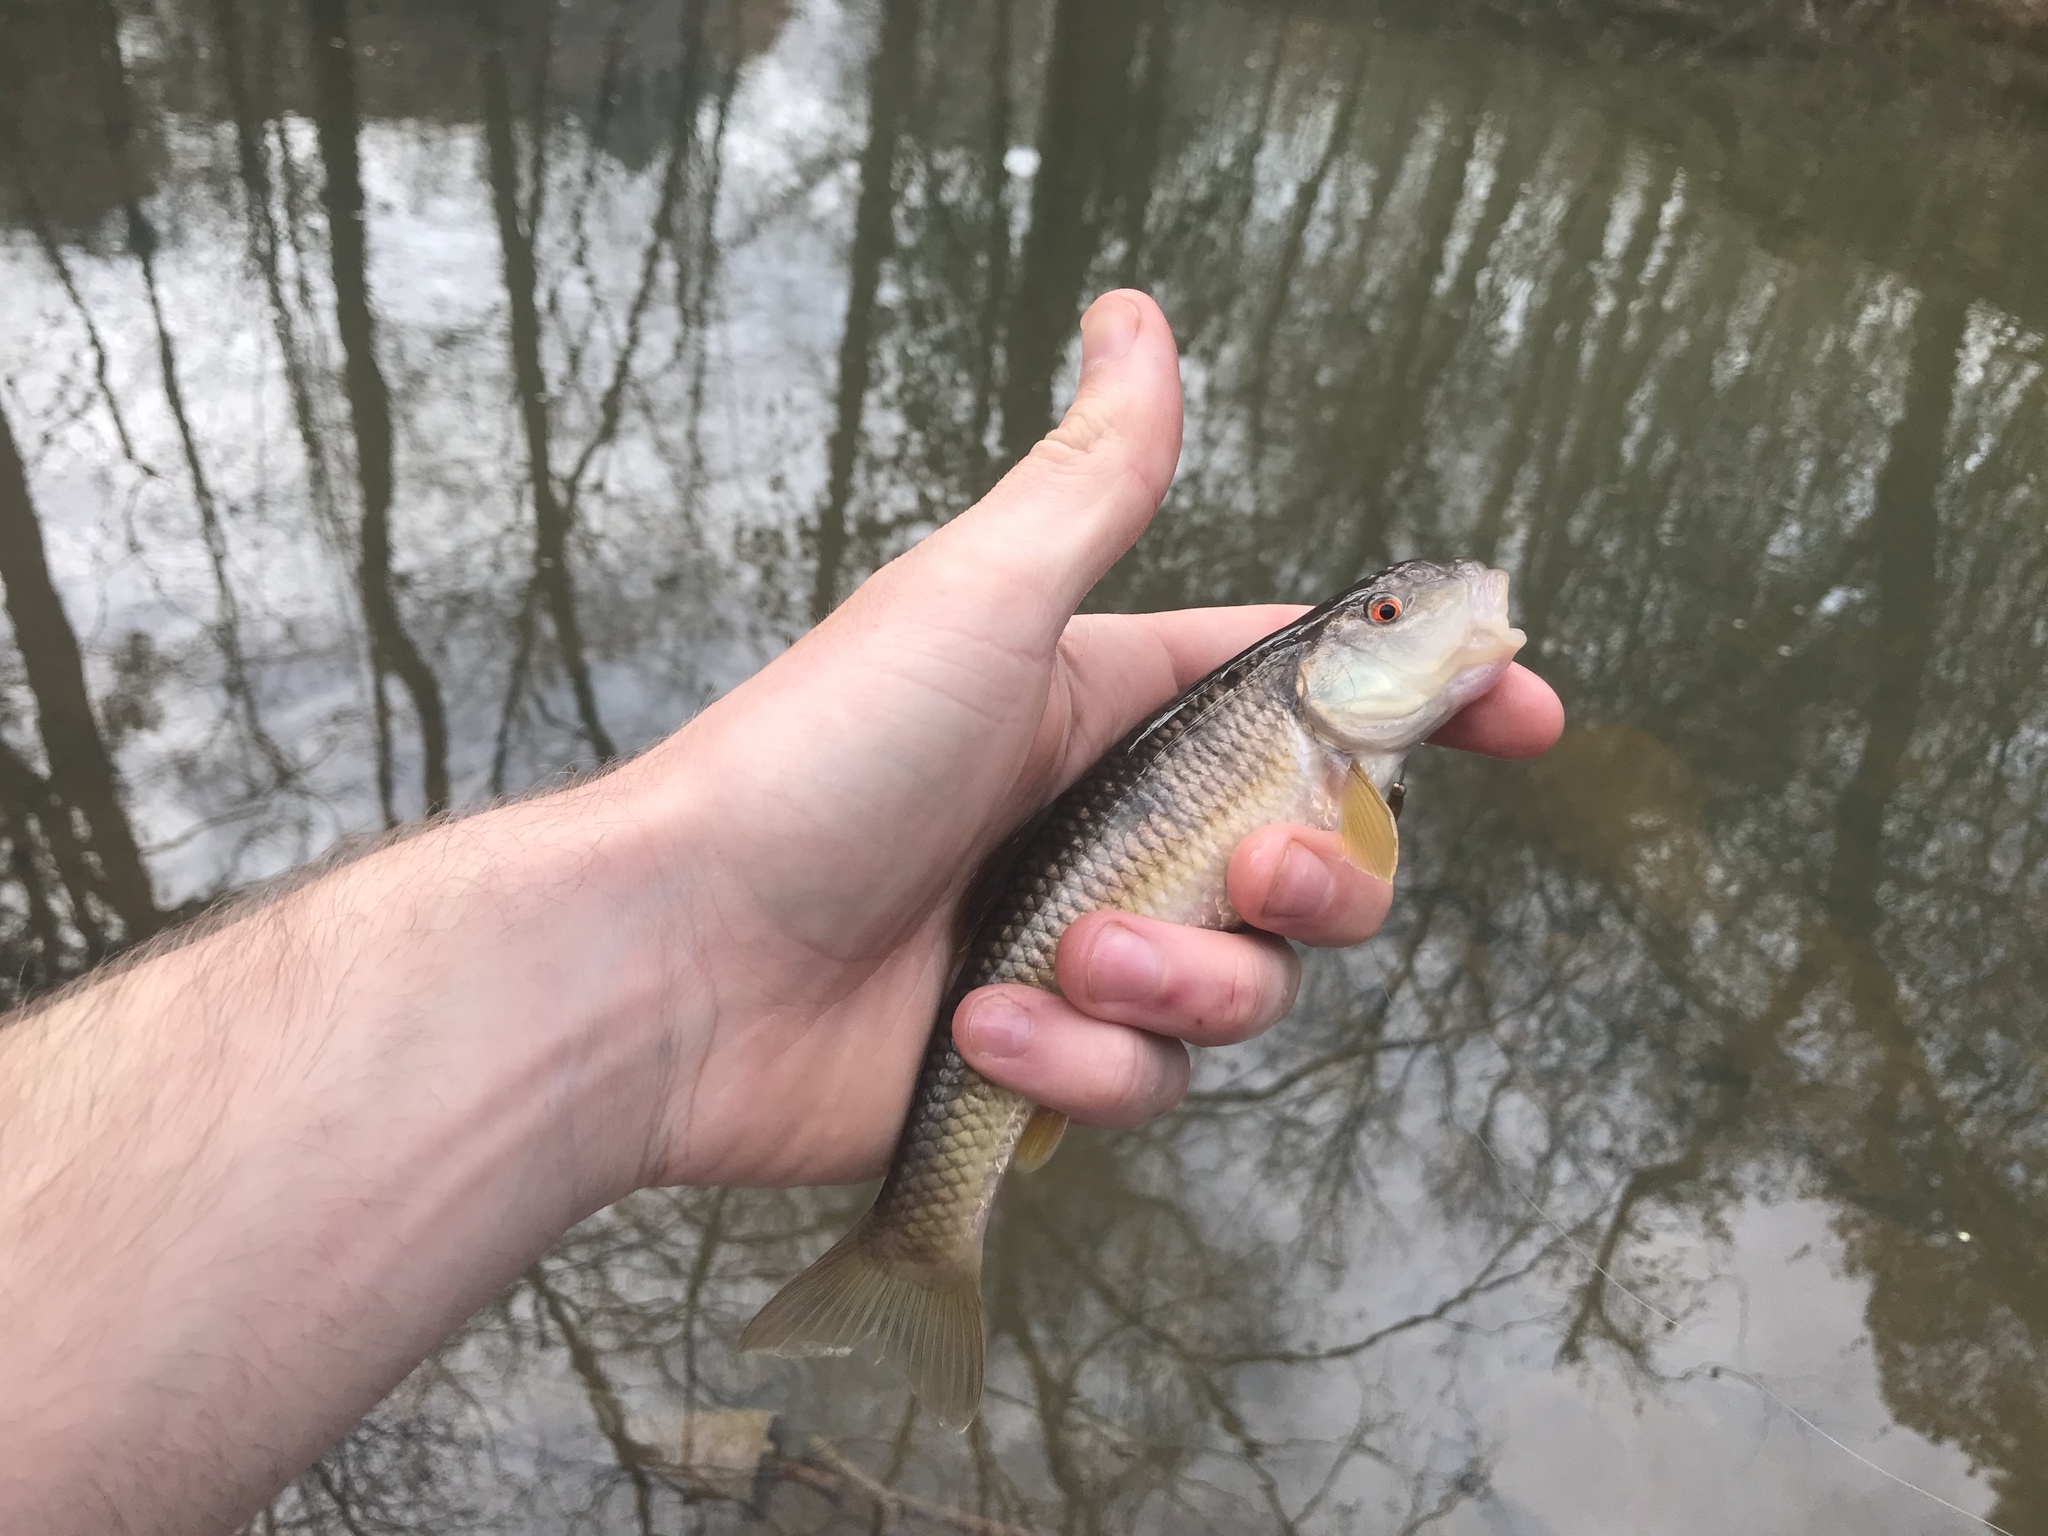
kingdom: Animalia
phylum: Chordata
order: Cypriniformes
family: Cyprinidae
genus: Nocomis
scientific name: Nocomis leptocephalus
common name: Bluehead chub
